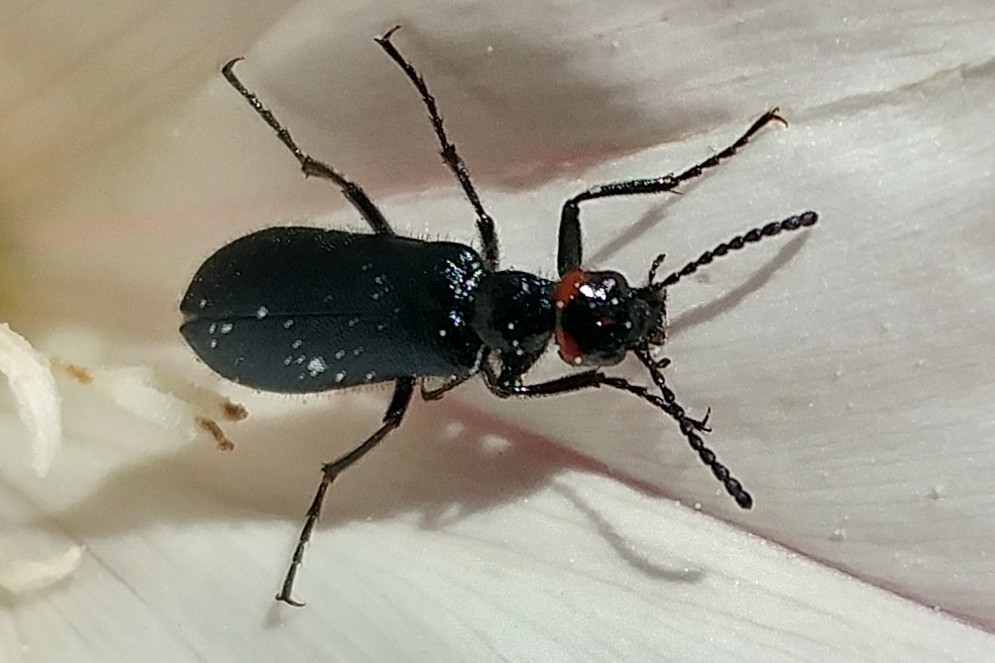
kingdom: Animalia
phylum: Arthropoda
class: Insecta
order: Coleoptera
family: Meloidae
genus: Lytta
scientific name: Lytta auriculata
